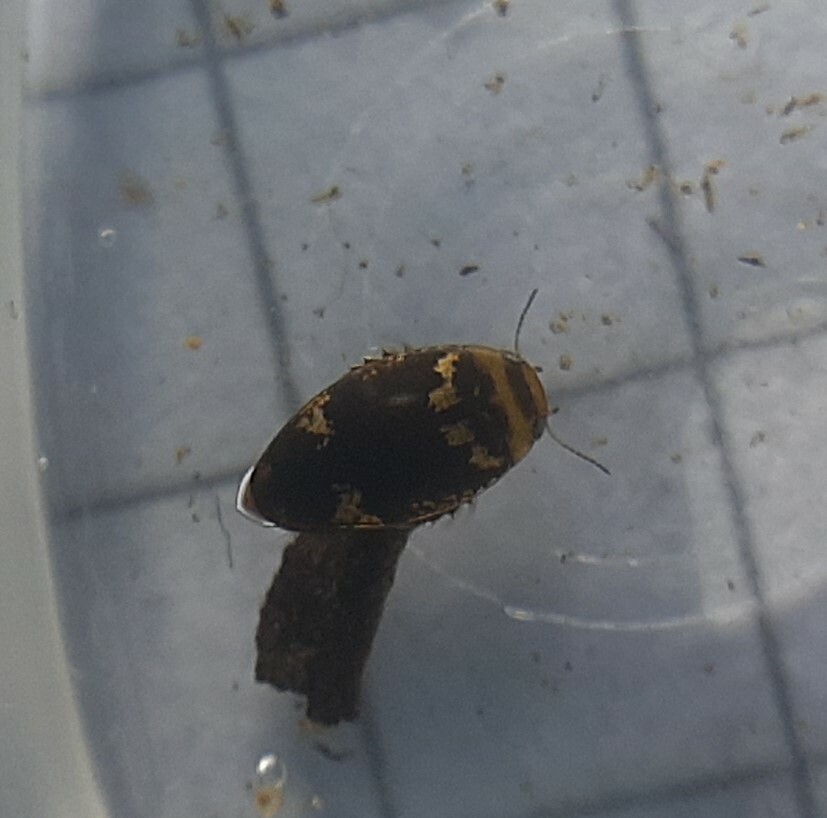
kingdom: Animalia
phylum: Arthropoda
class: Insecta
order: Coleoptera
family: Dytiscidae
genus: Laccophilus
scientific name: Laccophilus poecilus
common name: Sussex diving beetle
